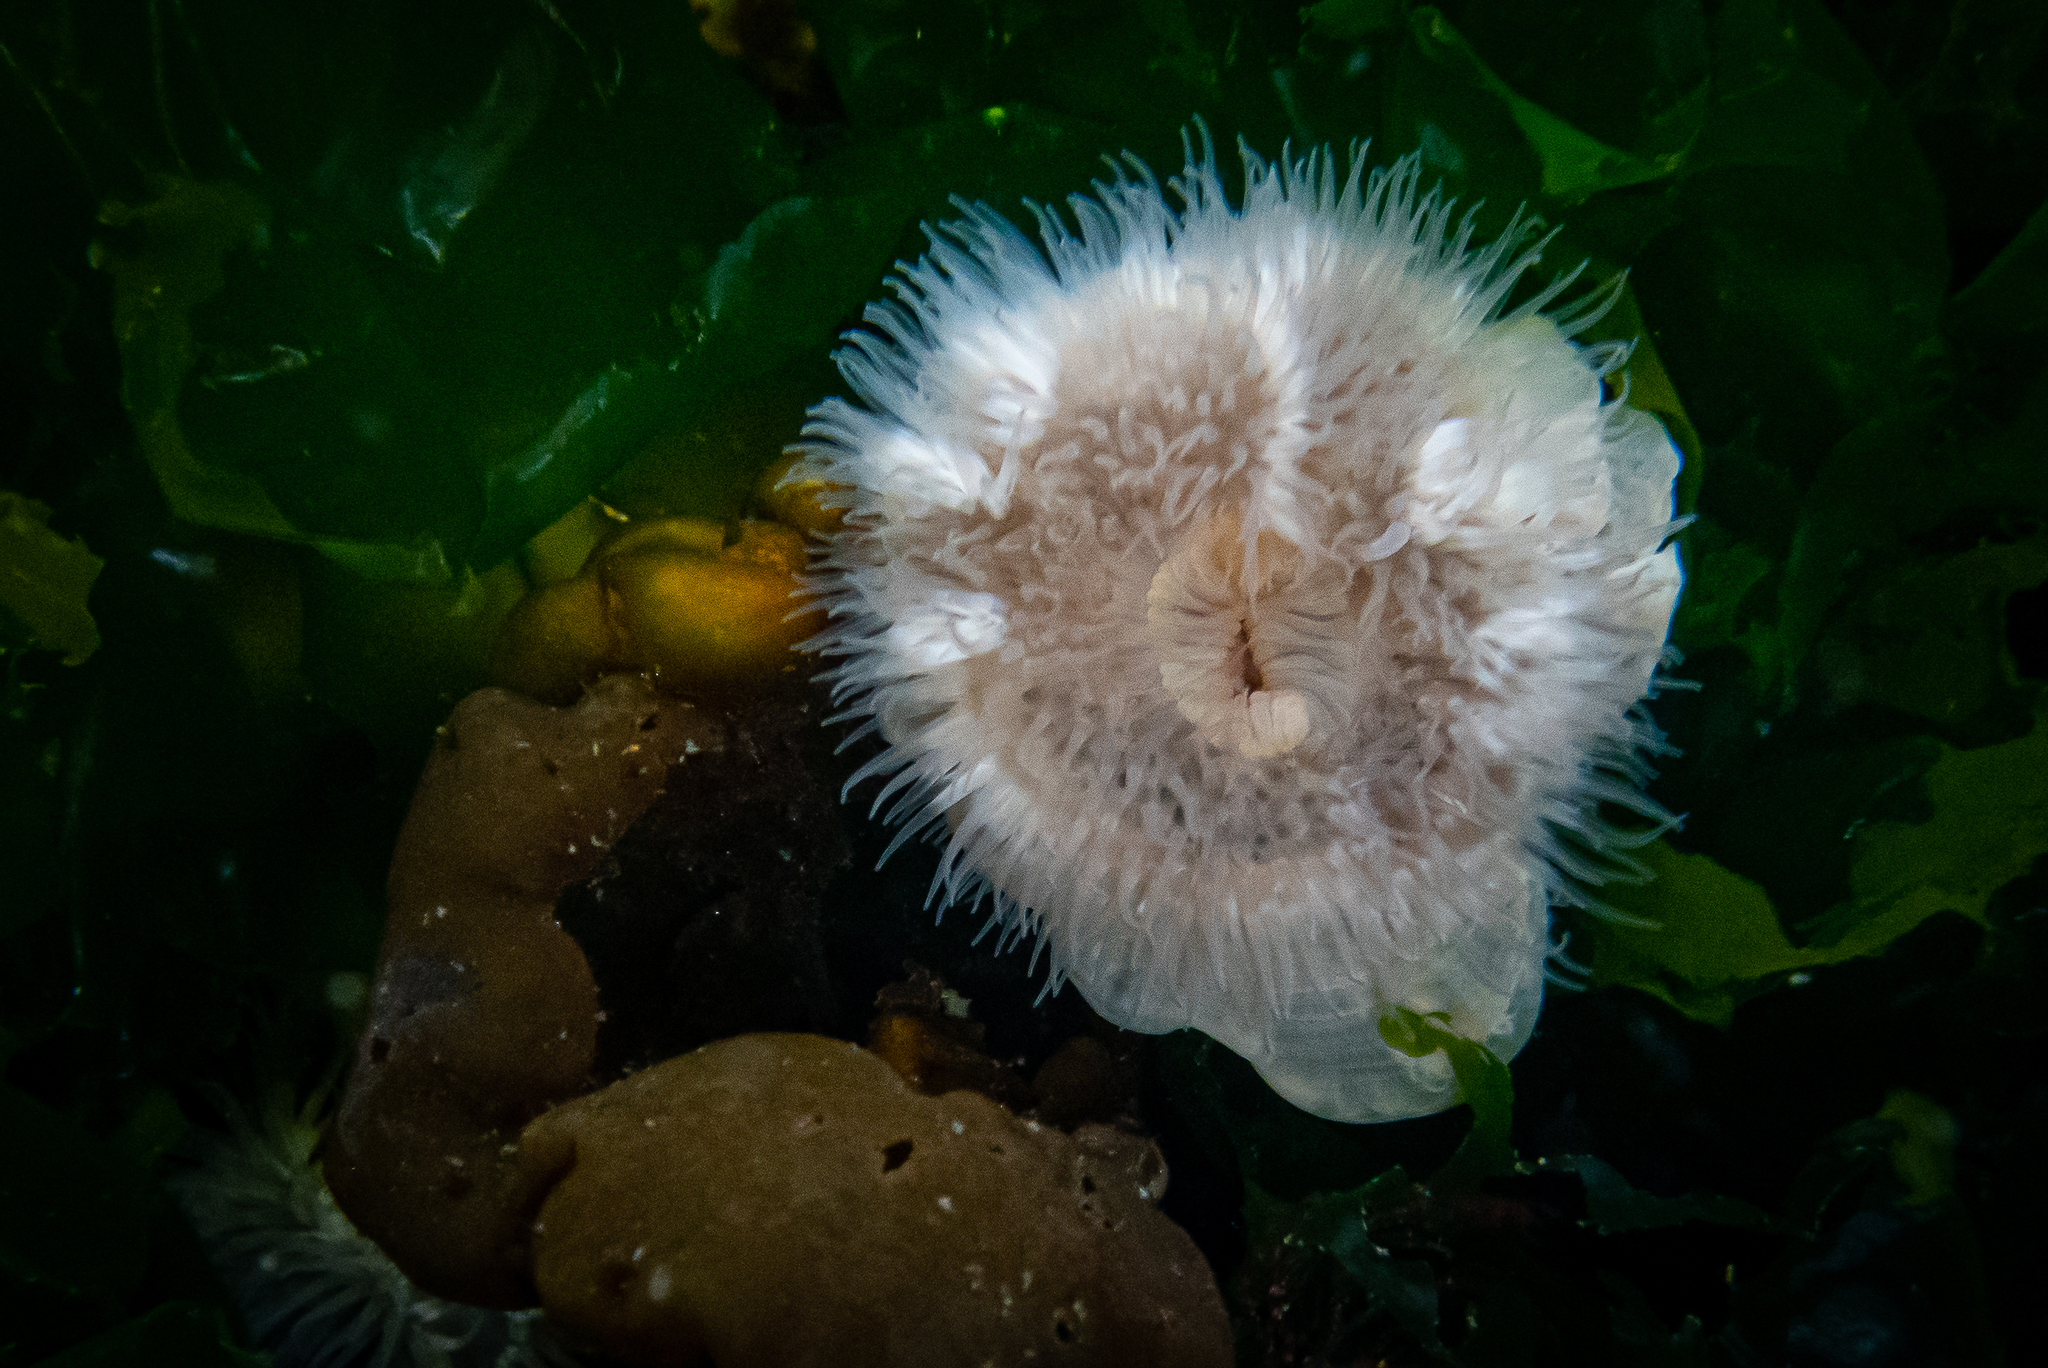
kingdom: Animalia
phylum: Cnidaria
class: Anthozoa
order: Actiniaria
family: Metridiidae
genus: Metridium
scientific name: Metridium senile
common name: Clonal plumose anemone
